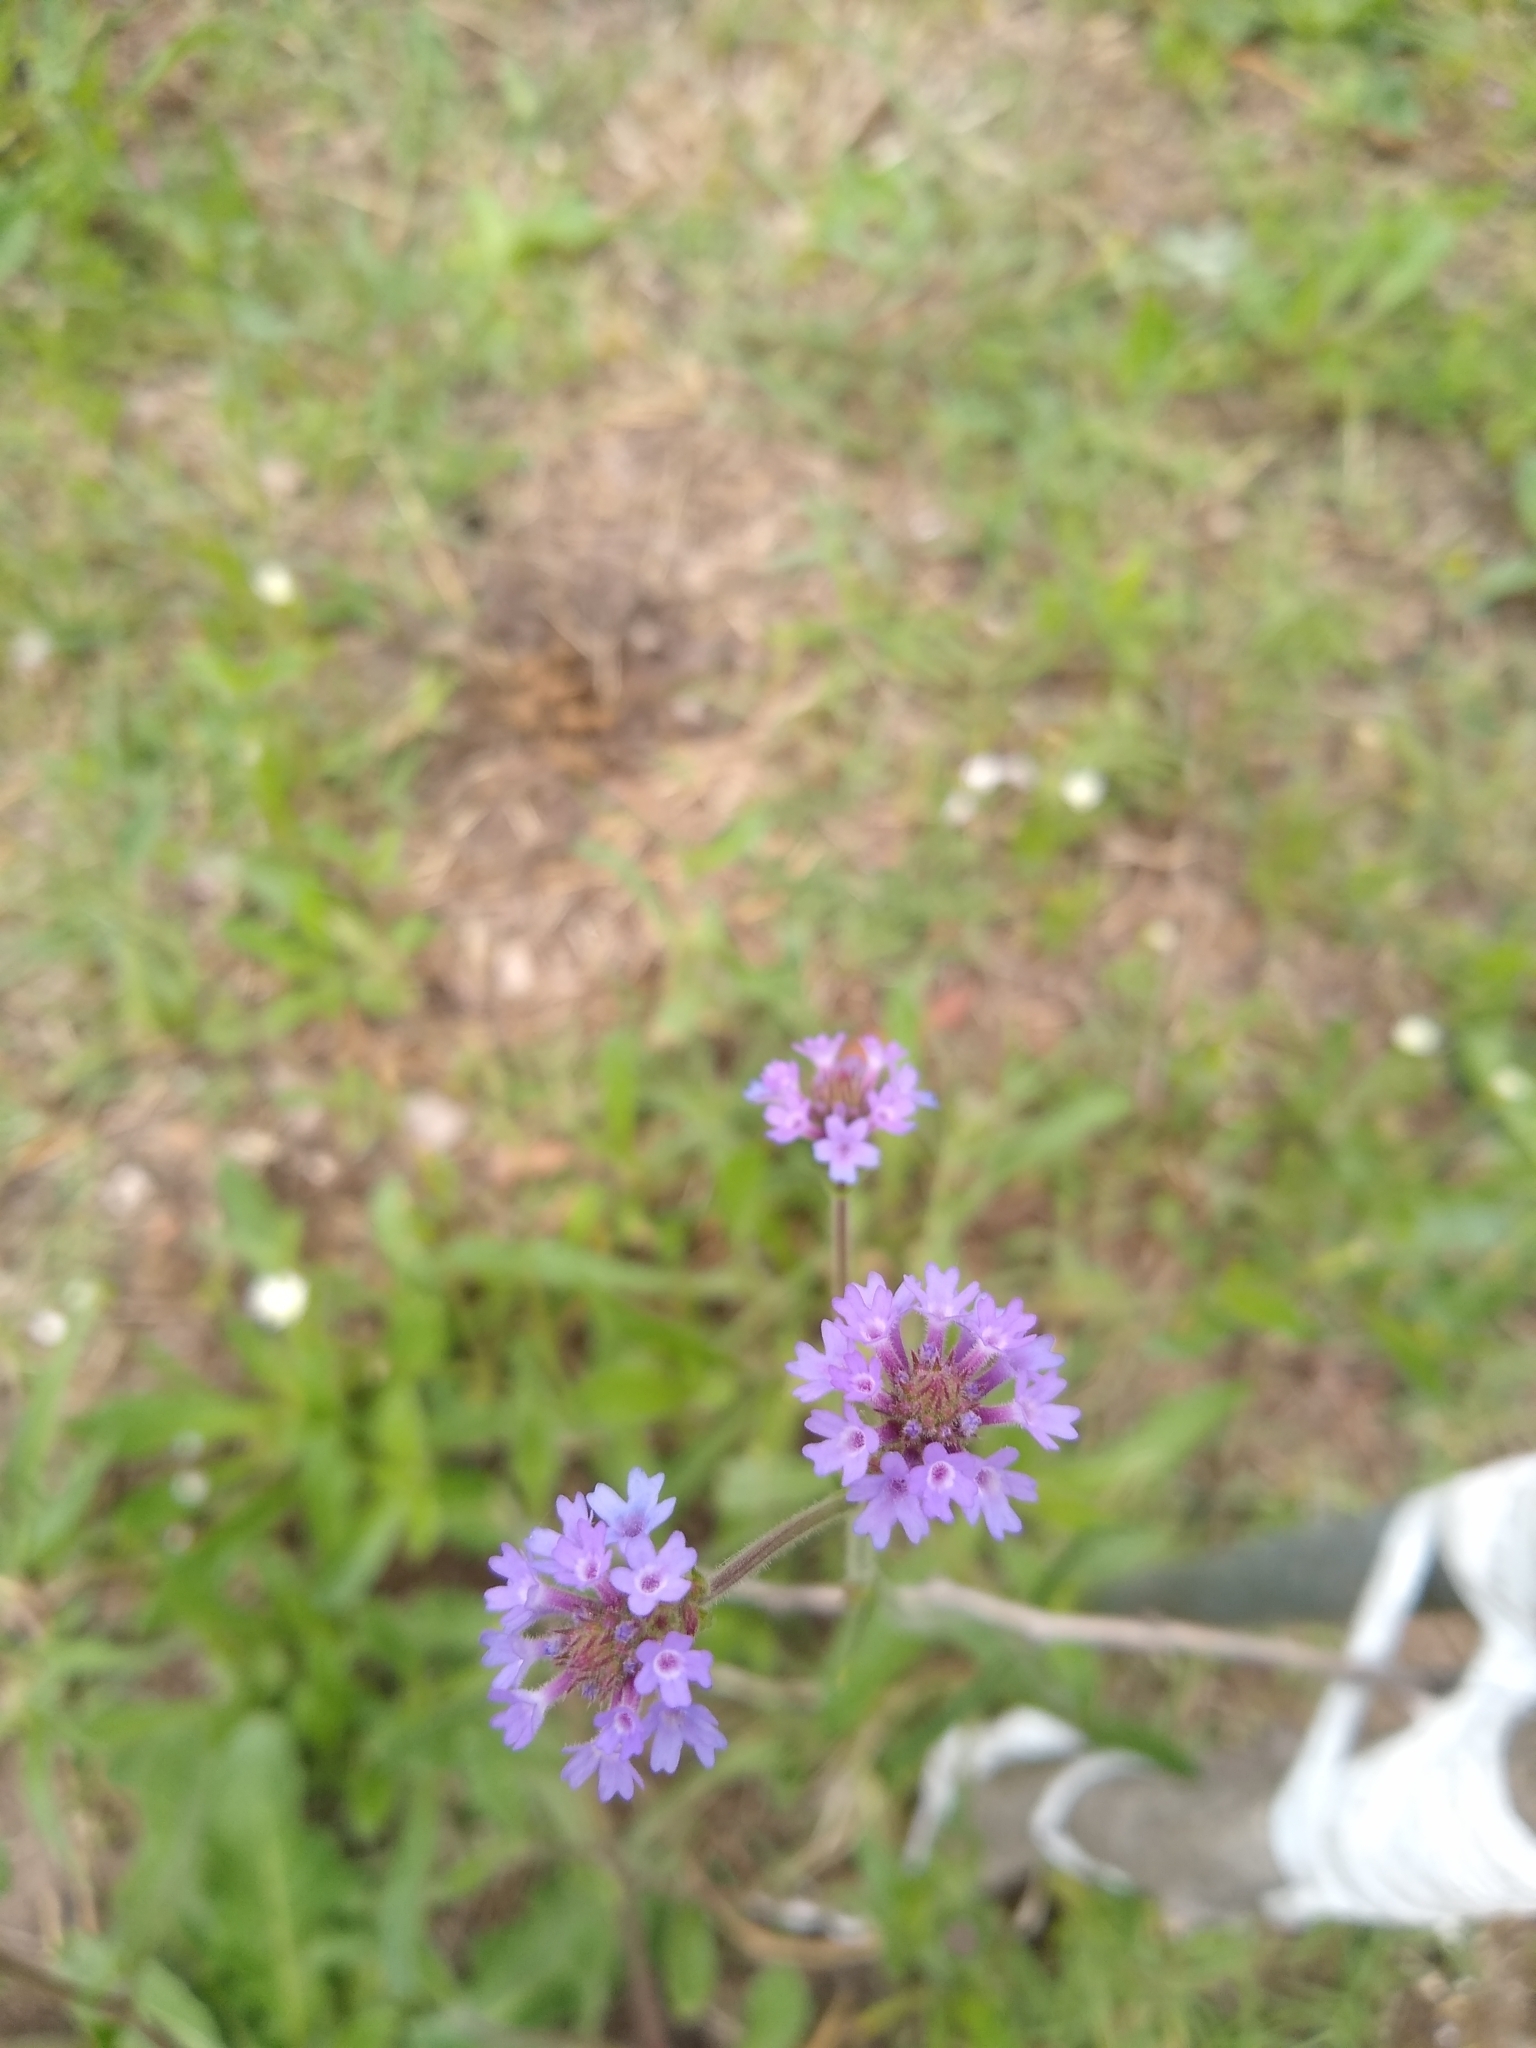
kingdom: Plantae
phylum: Tracheophyta
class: Magnoliopsida
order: Lamiales
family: Verbenaceae
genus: Verbena
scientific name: Verbena intermedia
